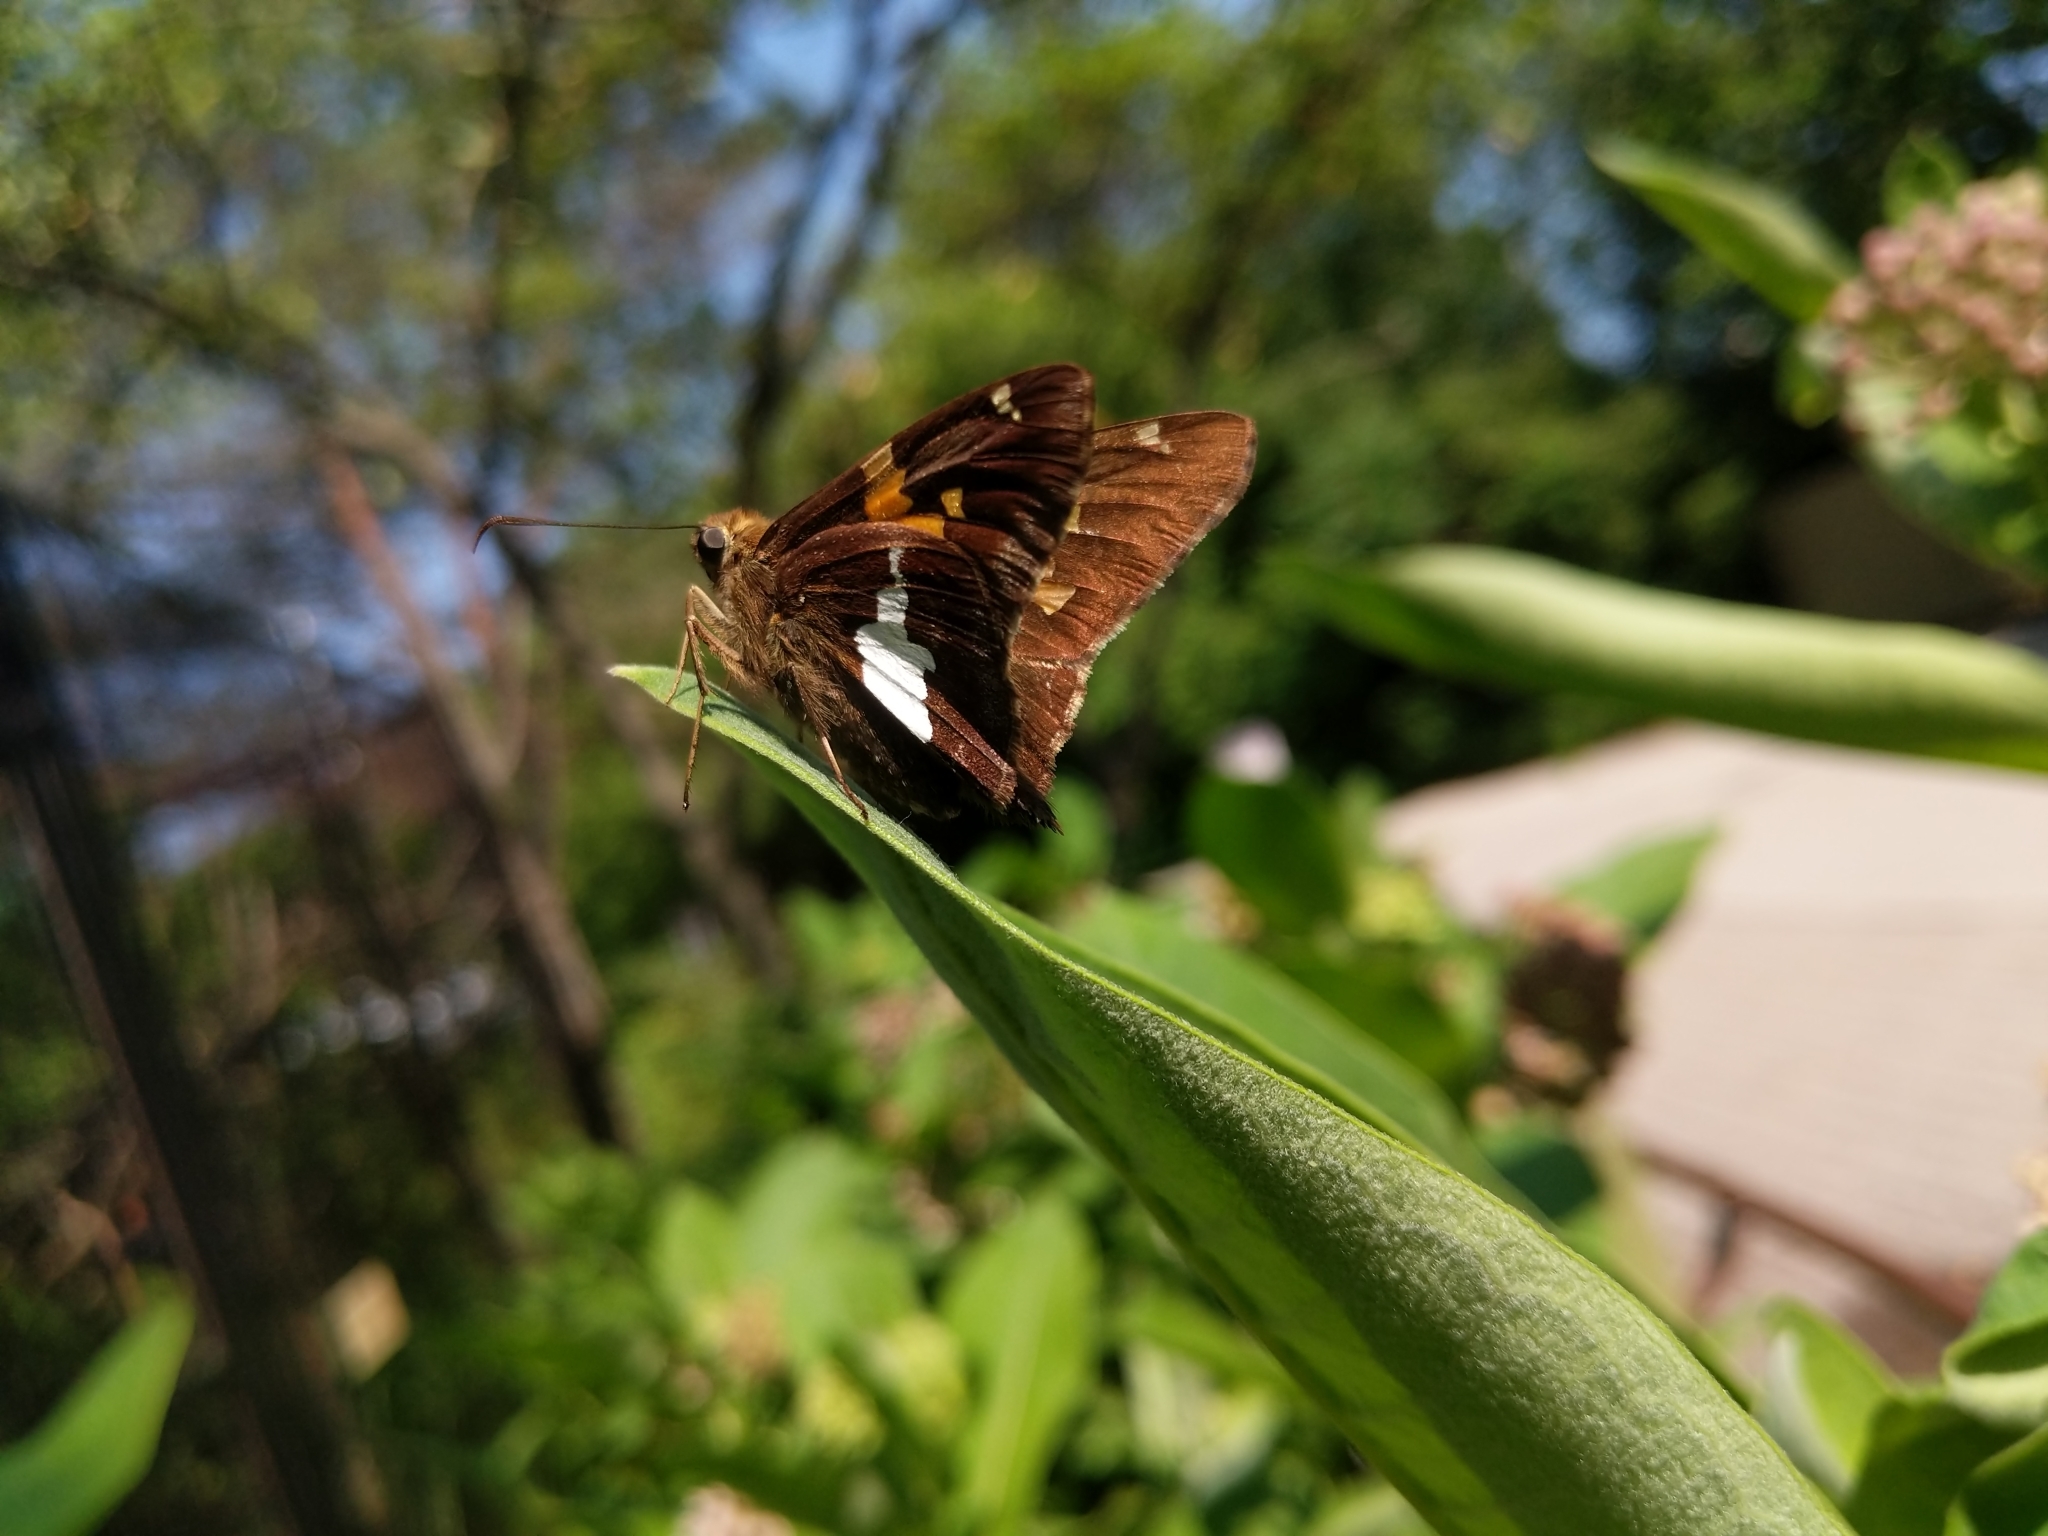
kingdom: Animalia
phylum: Arthropoda
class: Insecta
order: Lepidoptera
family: Hesperiidae
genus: Epargyreus
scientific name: Epargyreus clarus
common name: Silver-spotted skipper
